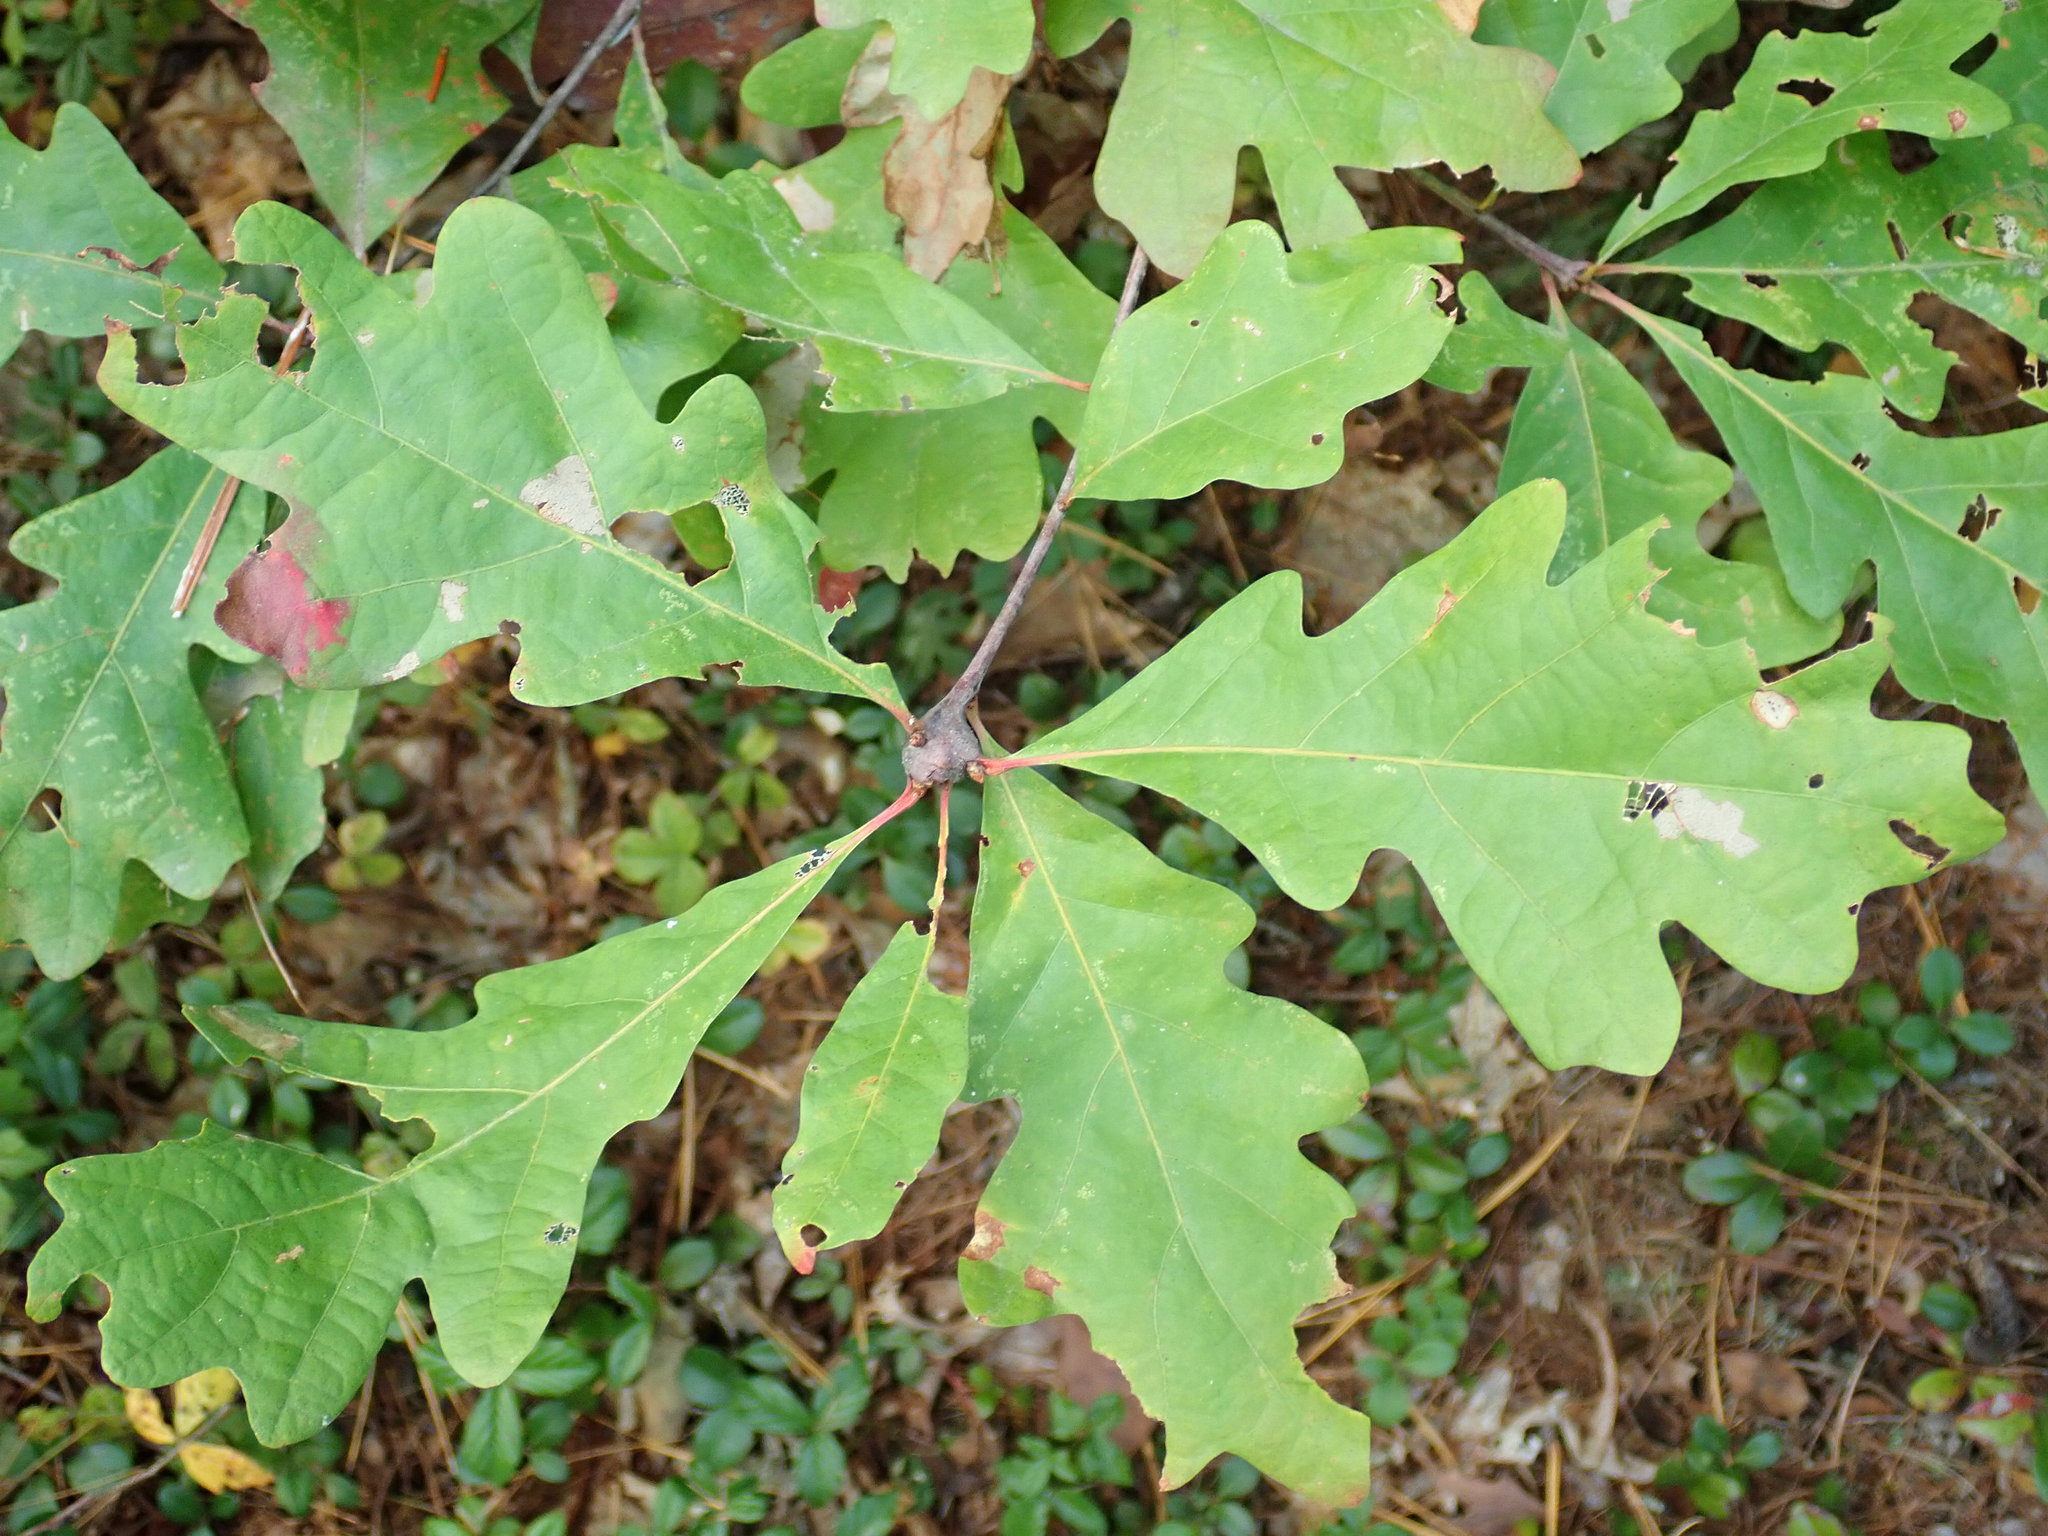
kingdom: Animalia
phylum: Arthropoda
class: Insecta
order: Hymenoptera
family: Cynipidae
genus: Callirhytis
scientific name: Callirhytis clavula
